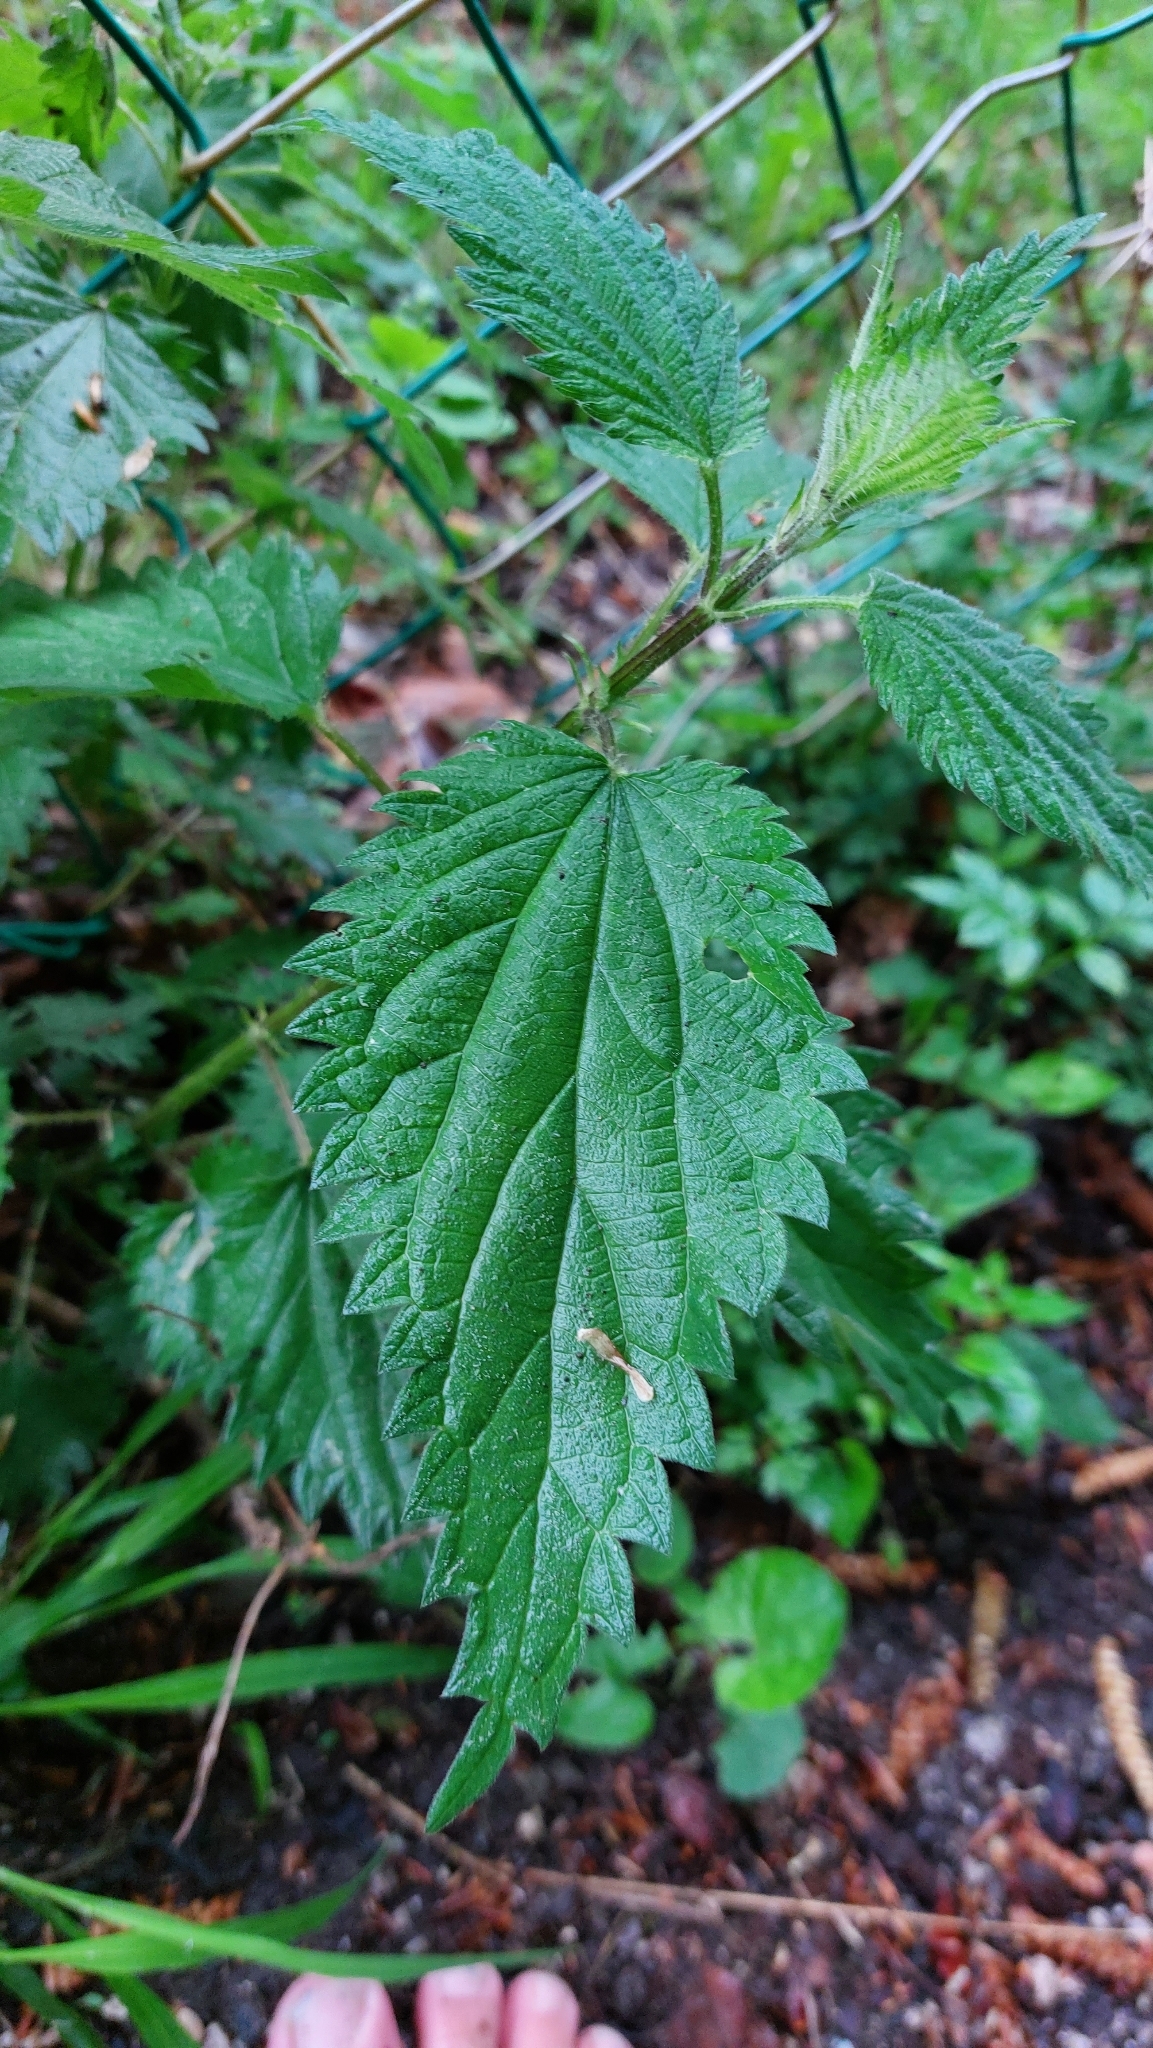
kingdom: Plantae
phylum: Tracheophyta
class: Magnoliopsida
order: Rosales
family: Urticaceae
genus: Urtica
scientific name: Urtica dioica
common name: Common nettle
